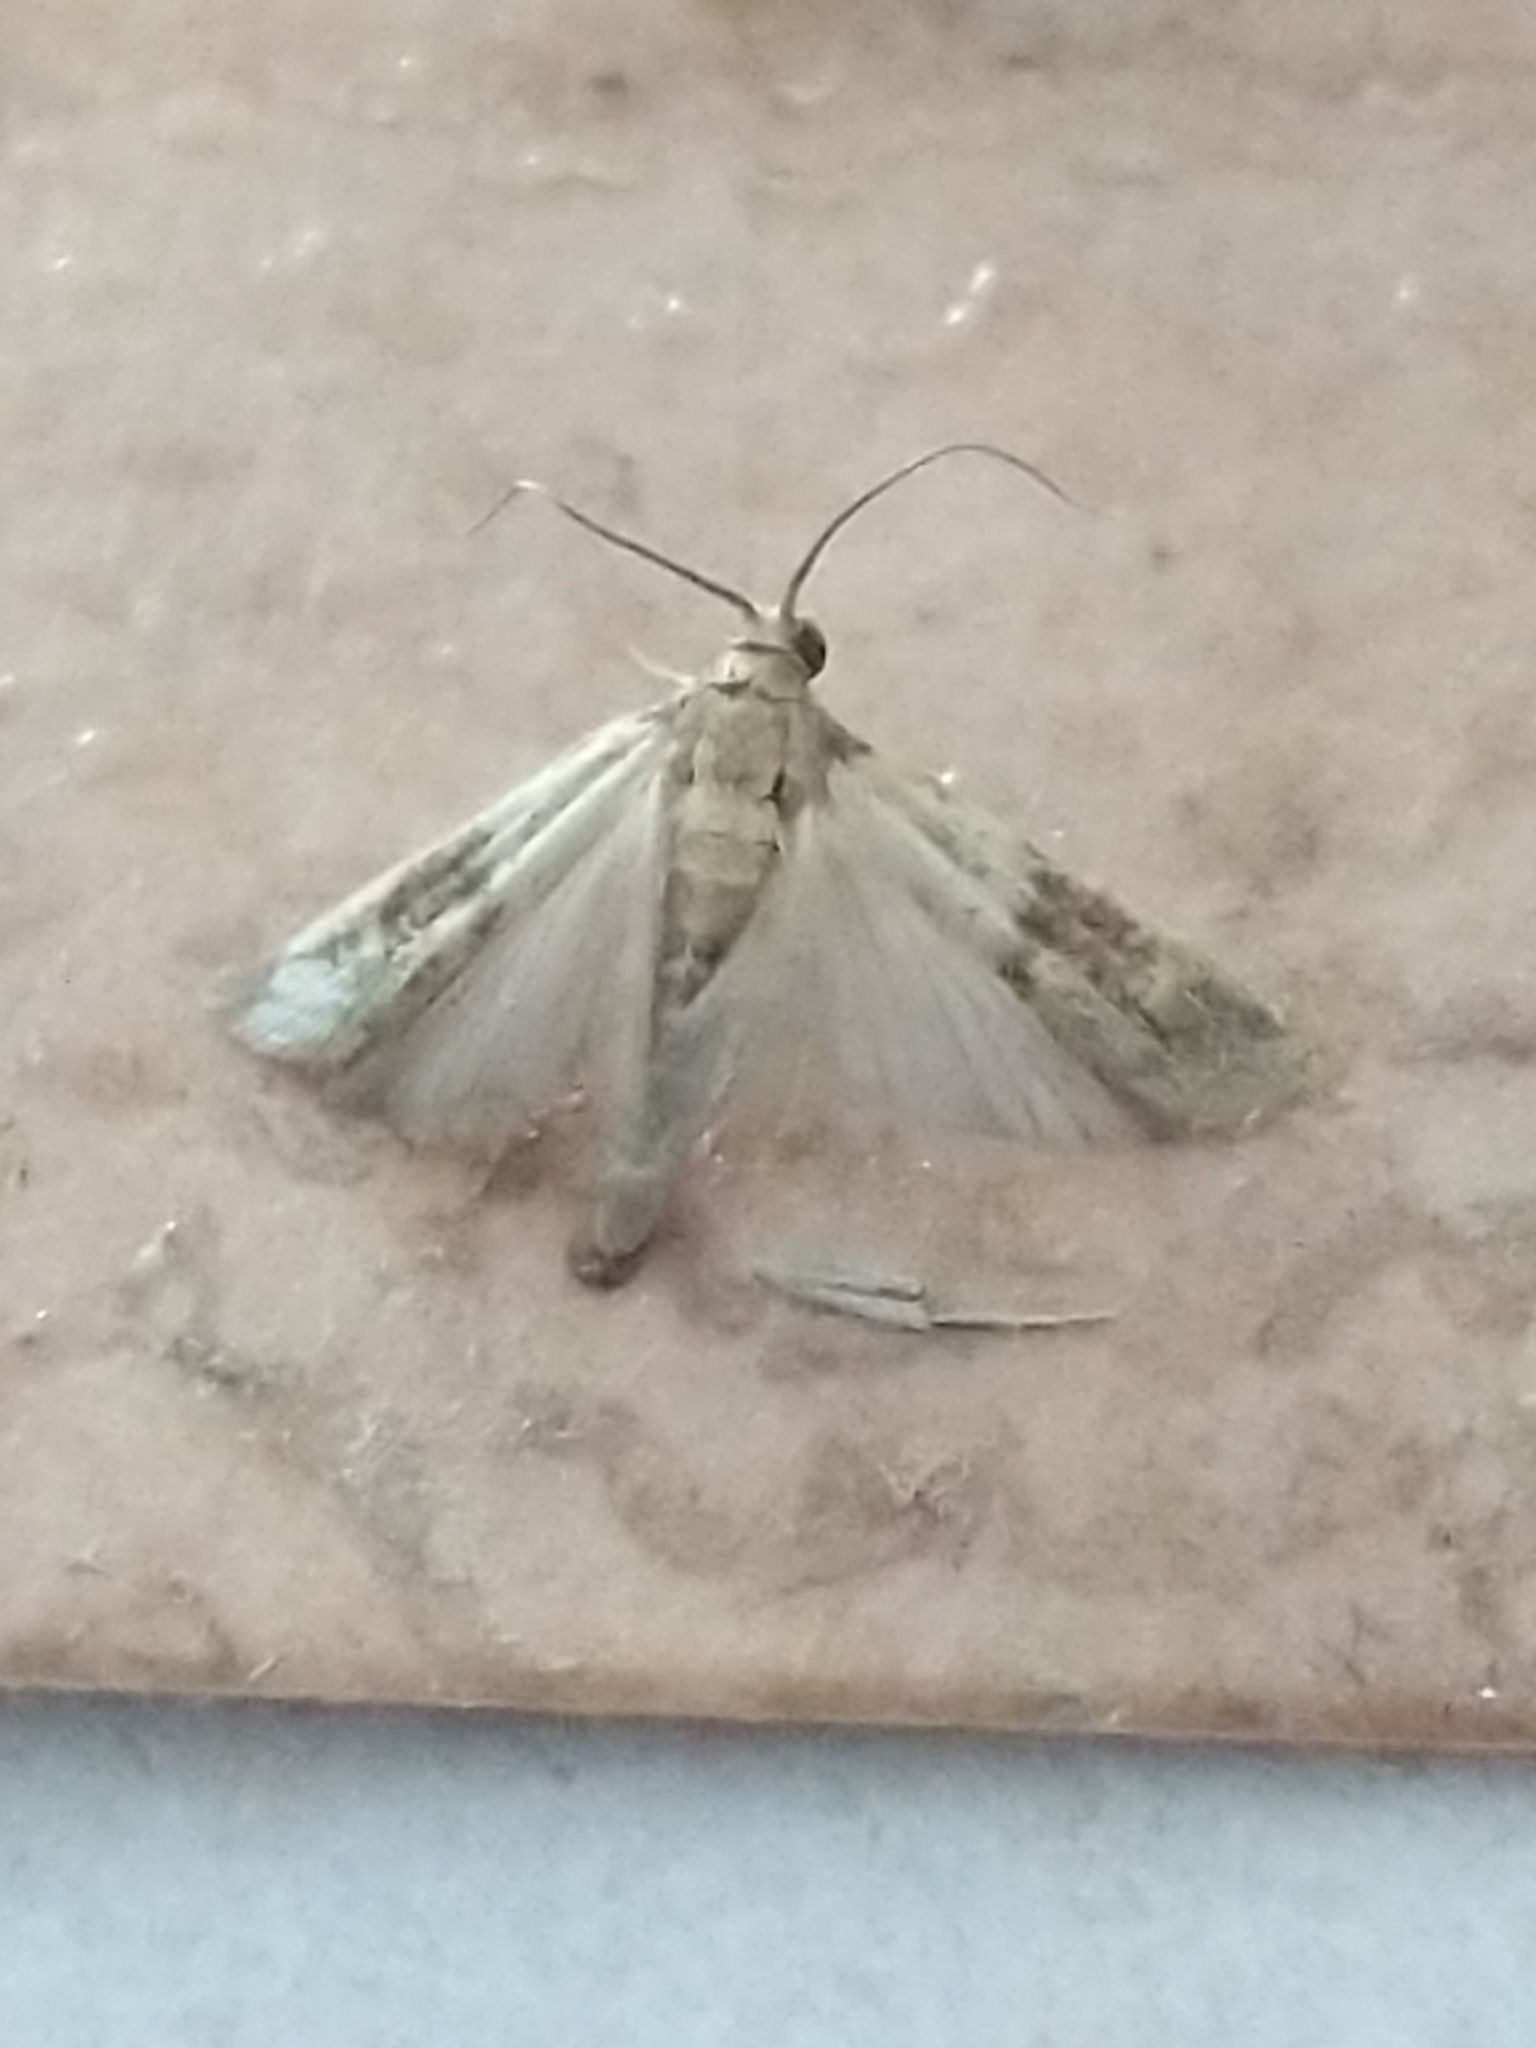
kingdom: Animalia
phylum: Arthropoda
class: Insecta
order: Lepidoptera
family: Pyralidae
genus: Plodia
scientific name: Plodia interpunctella
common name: Indian meal moth
